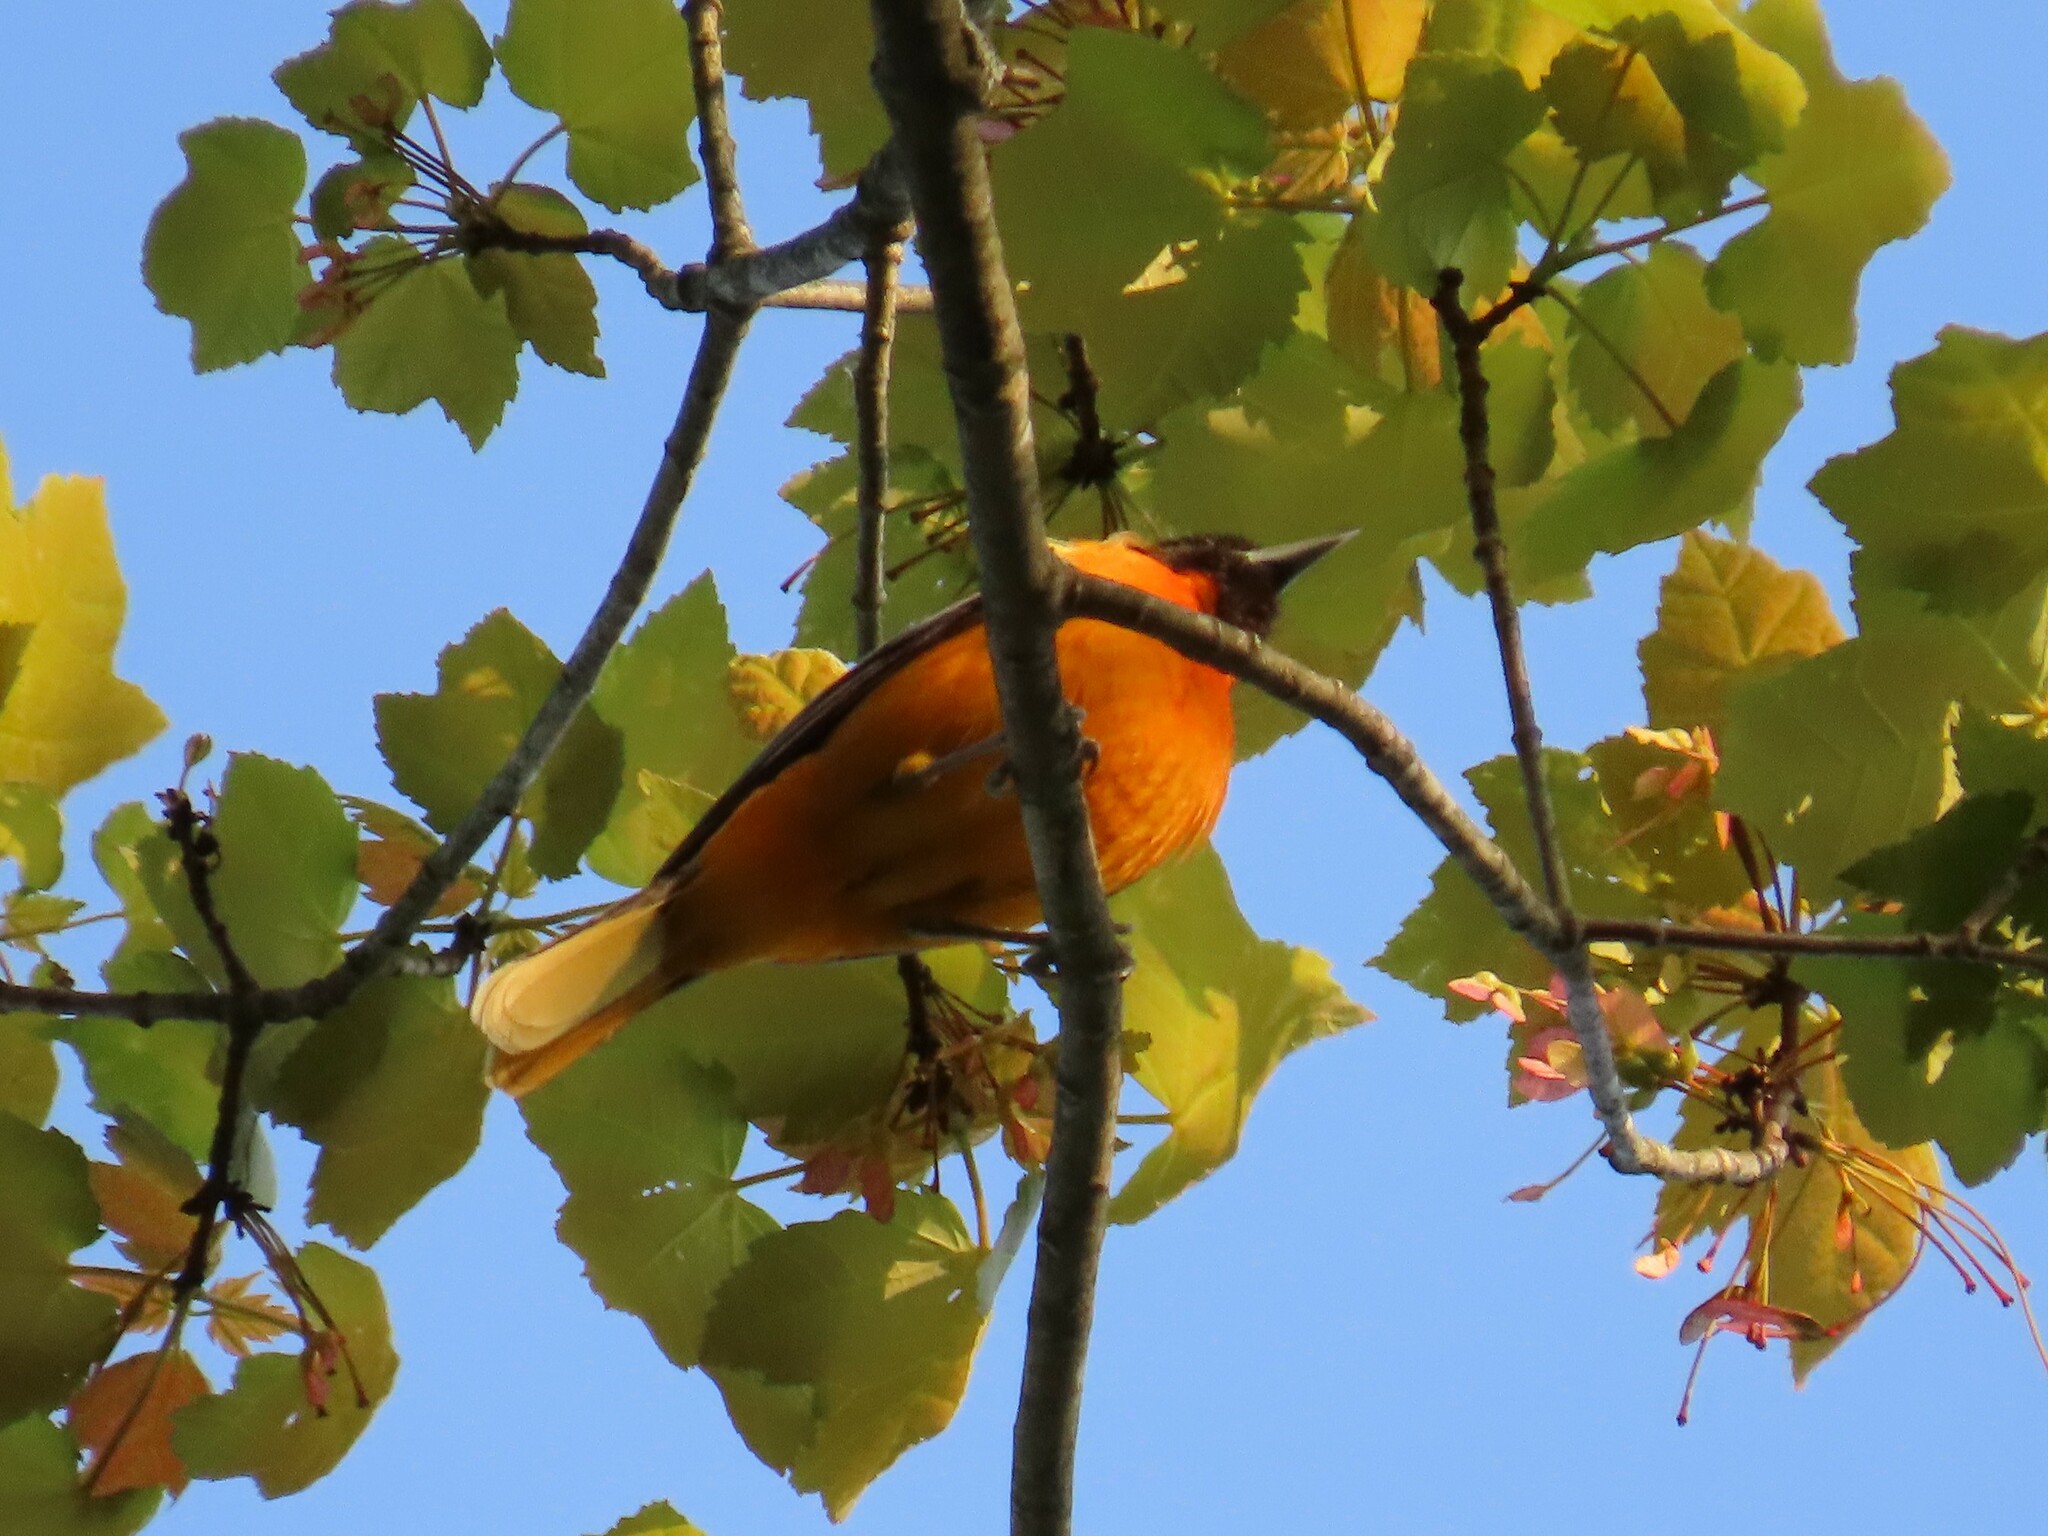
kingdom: Animalia
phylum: Chordata
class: Aves
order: Passeriformes
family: Icteridae
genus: Icterus
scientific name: Icterus galbula
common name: Baltimore oriole
